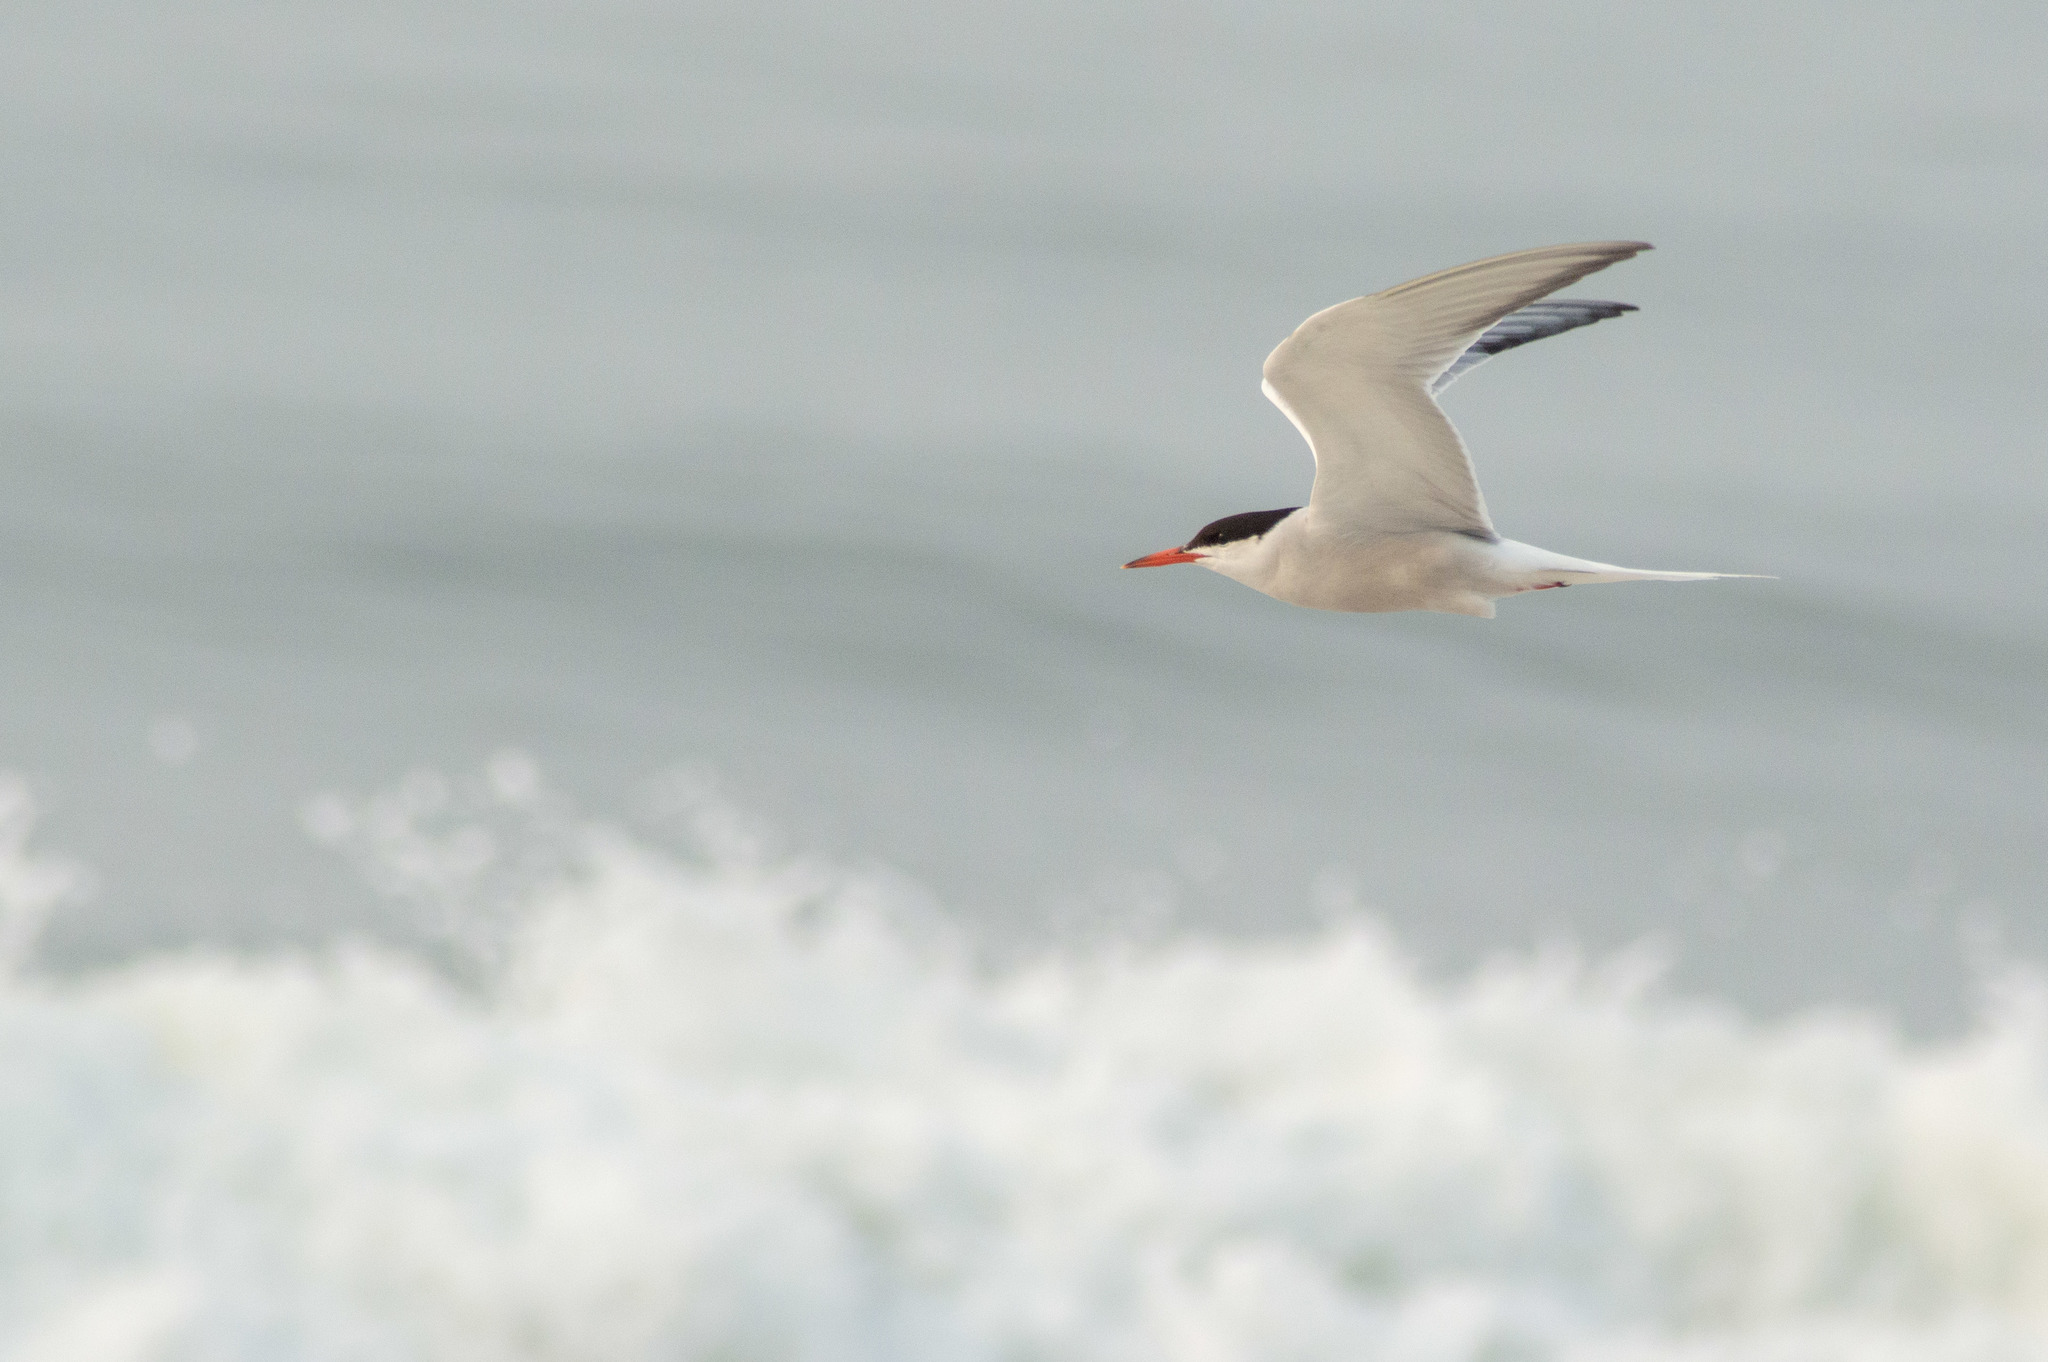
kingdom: Animalia
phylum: Chordata
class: Aves
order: Charadriiformes
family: Laridae
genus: Sterna
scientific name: Sterna hirundo
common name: Common tern
